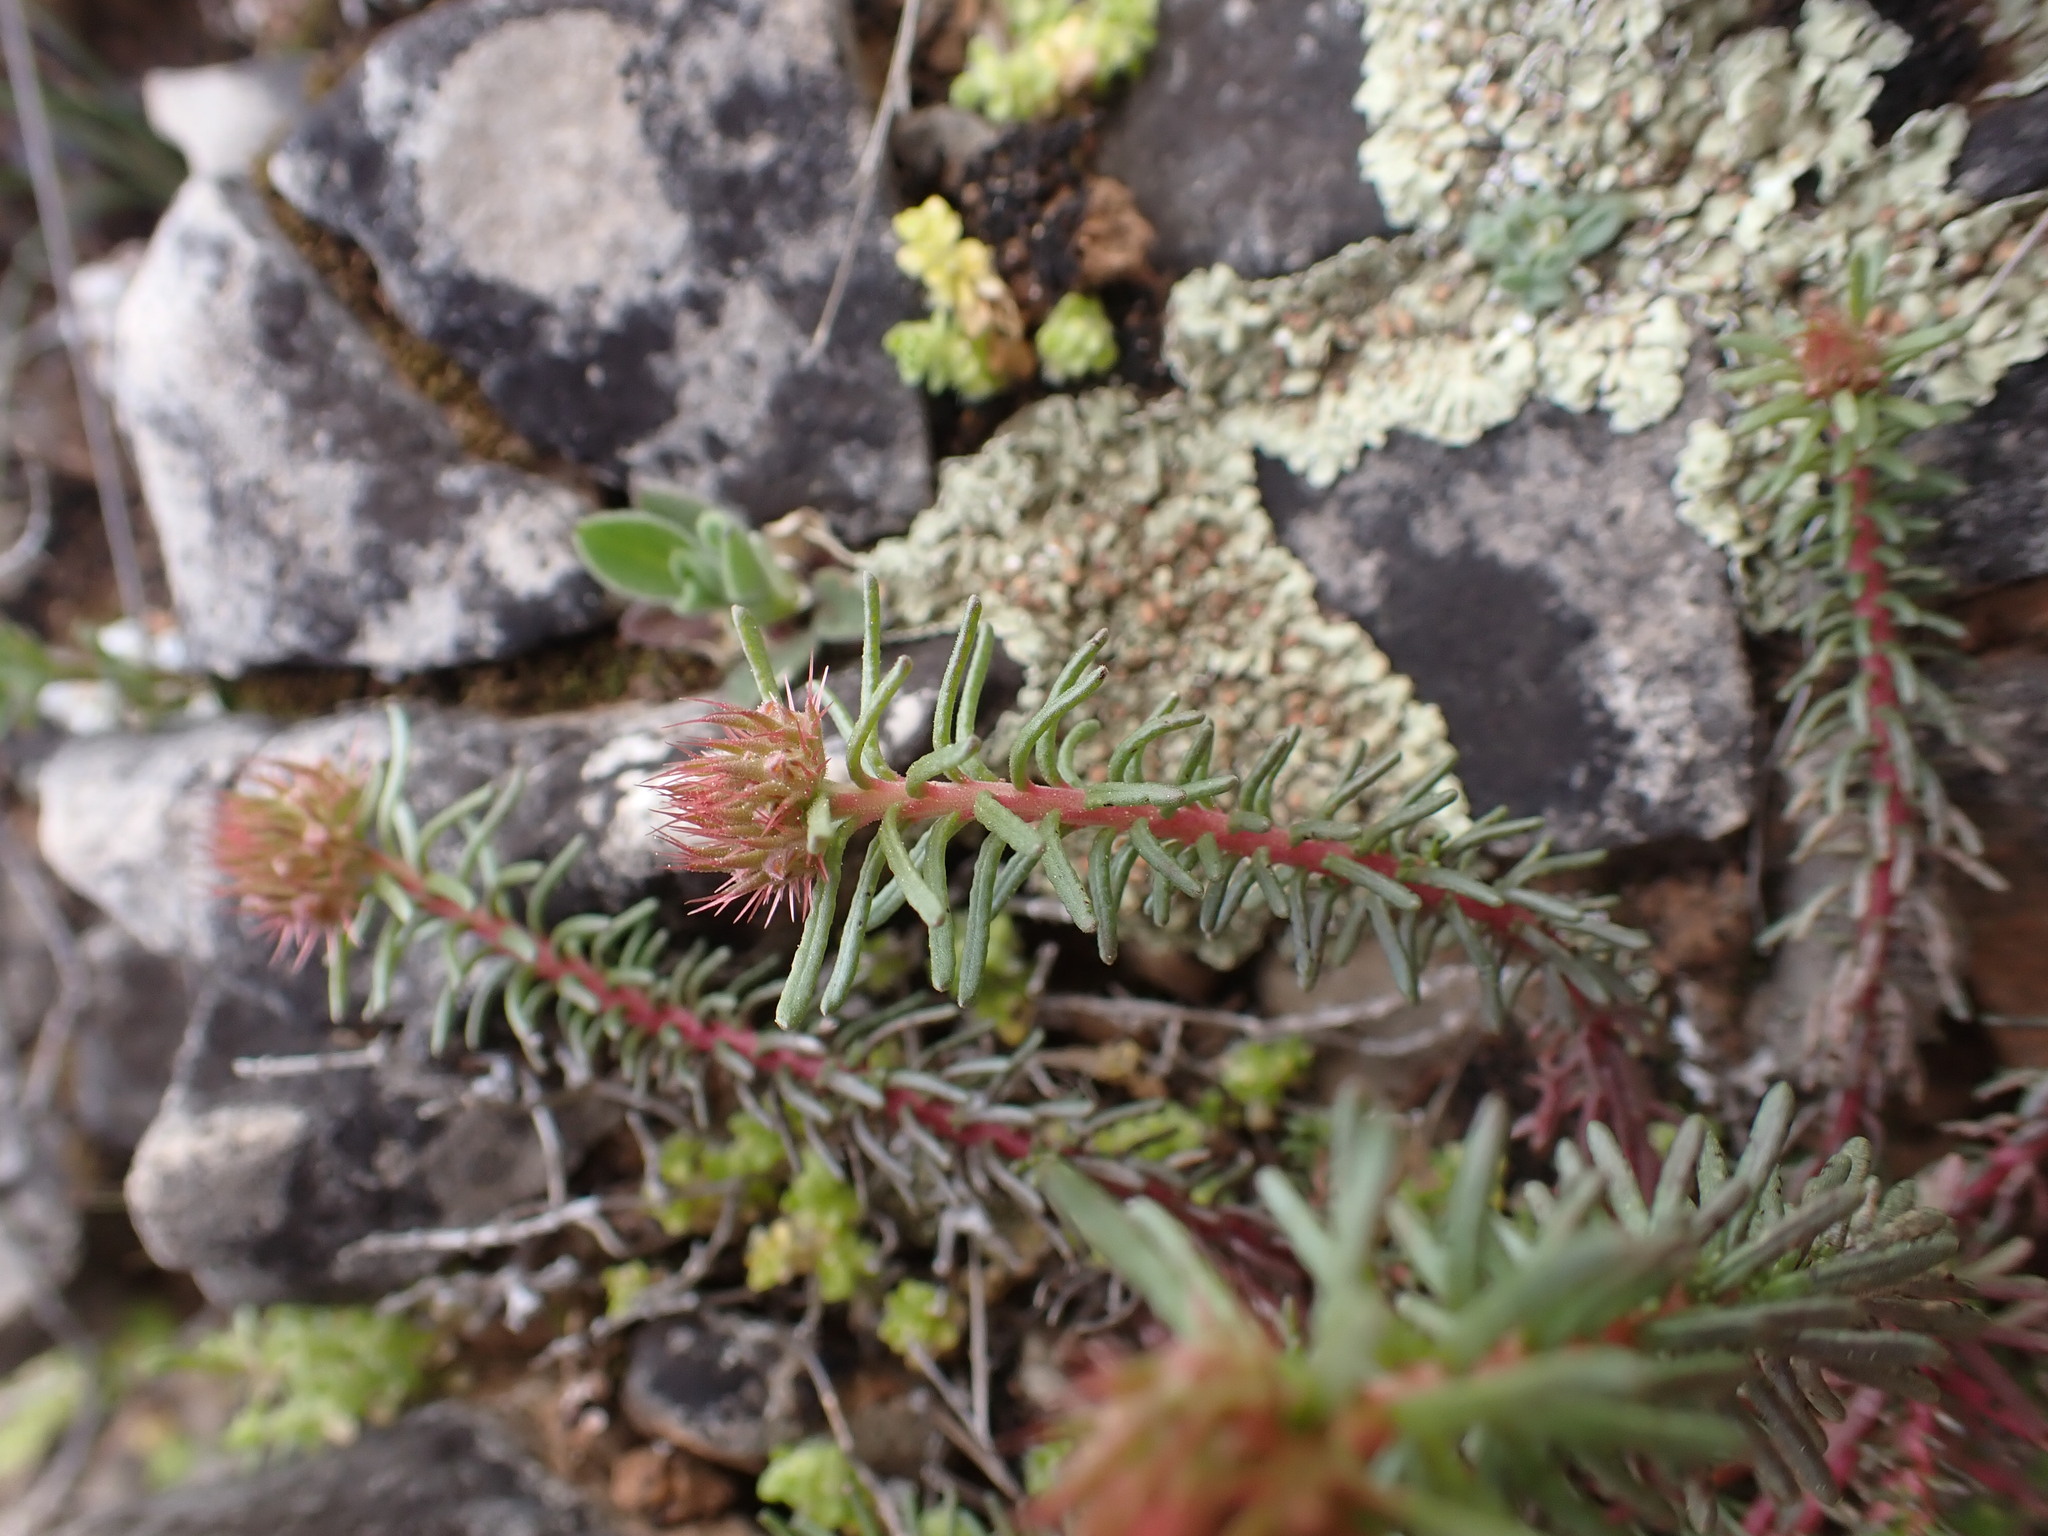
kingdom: Plantae
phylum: Tracheophyta
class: Magnoliopsida
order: Ericales
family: Primulaceae
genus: Coris
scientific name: Coris monspeliensis
